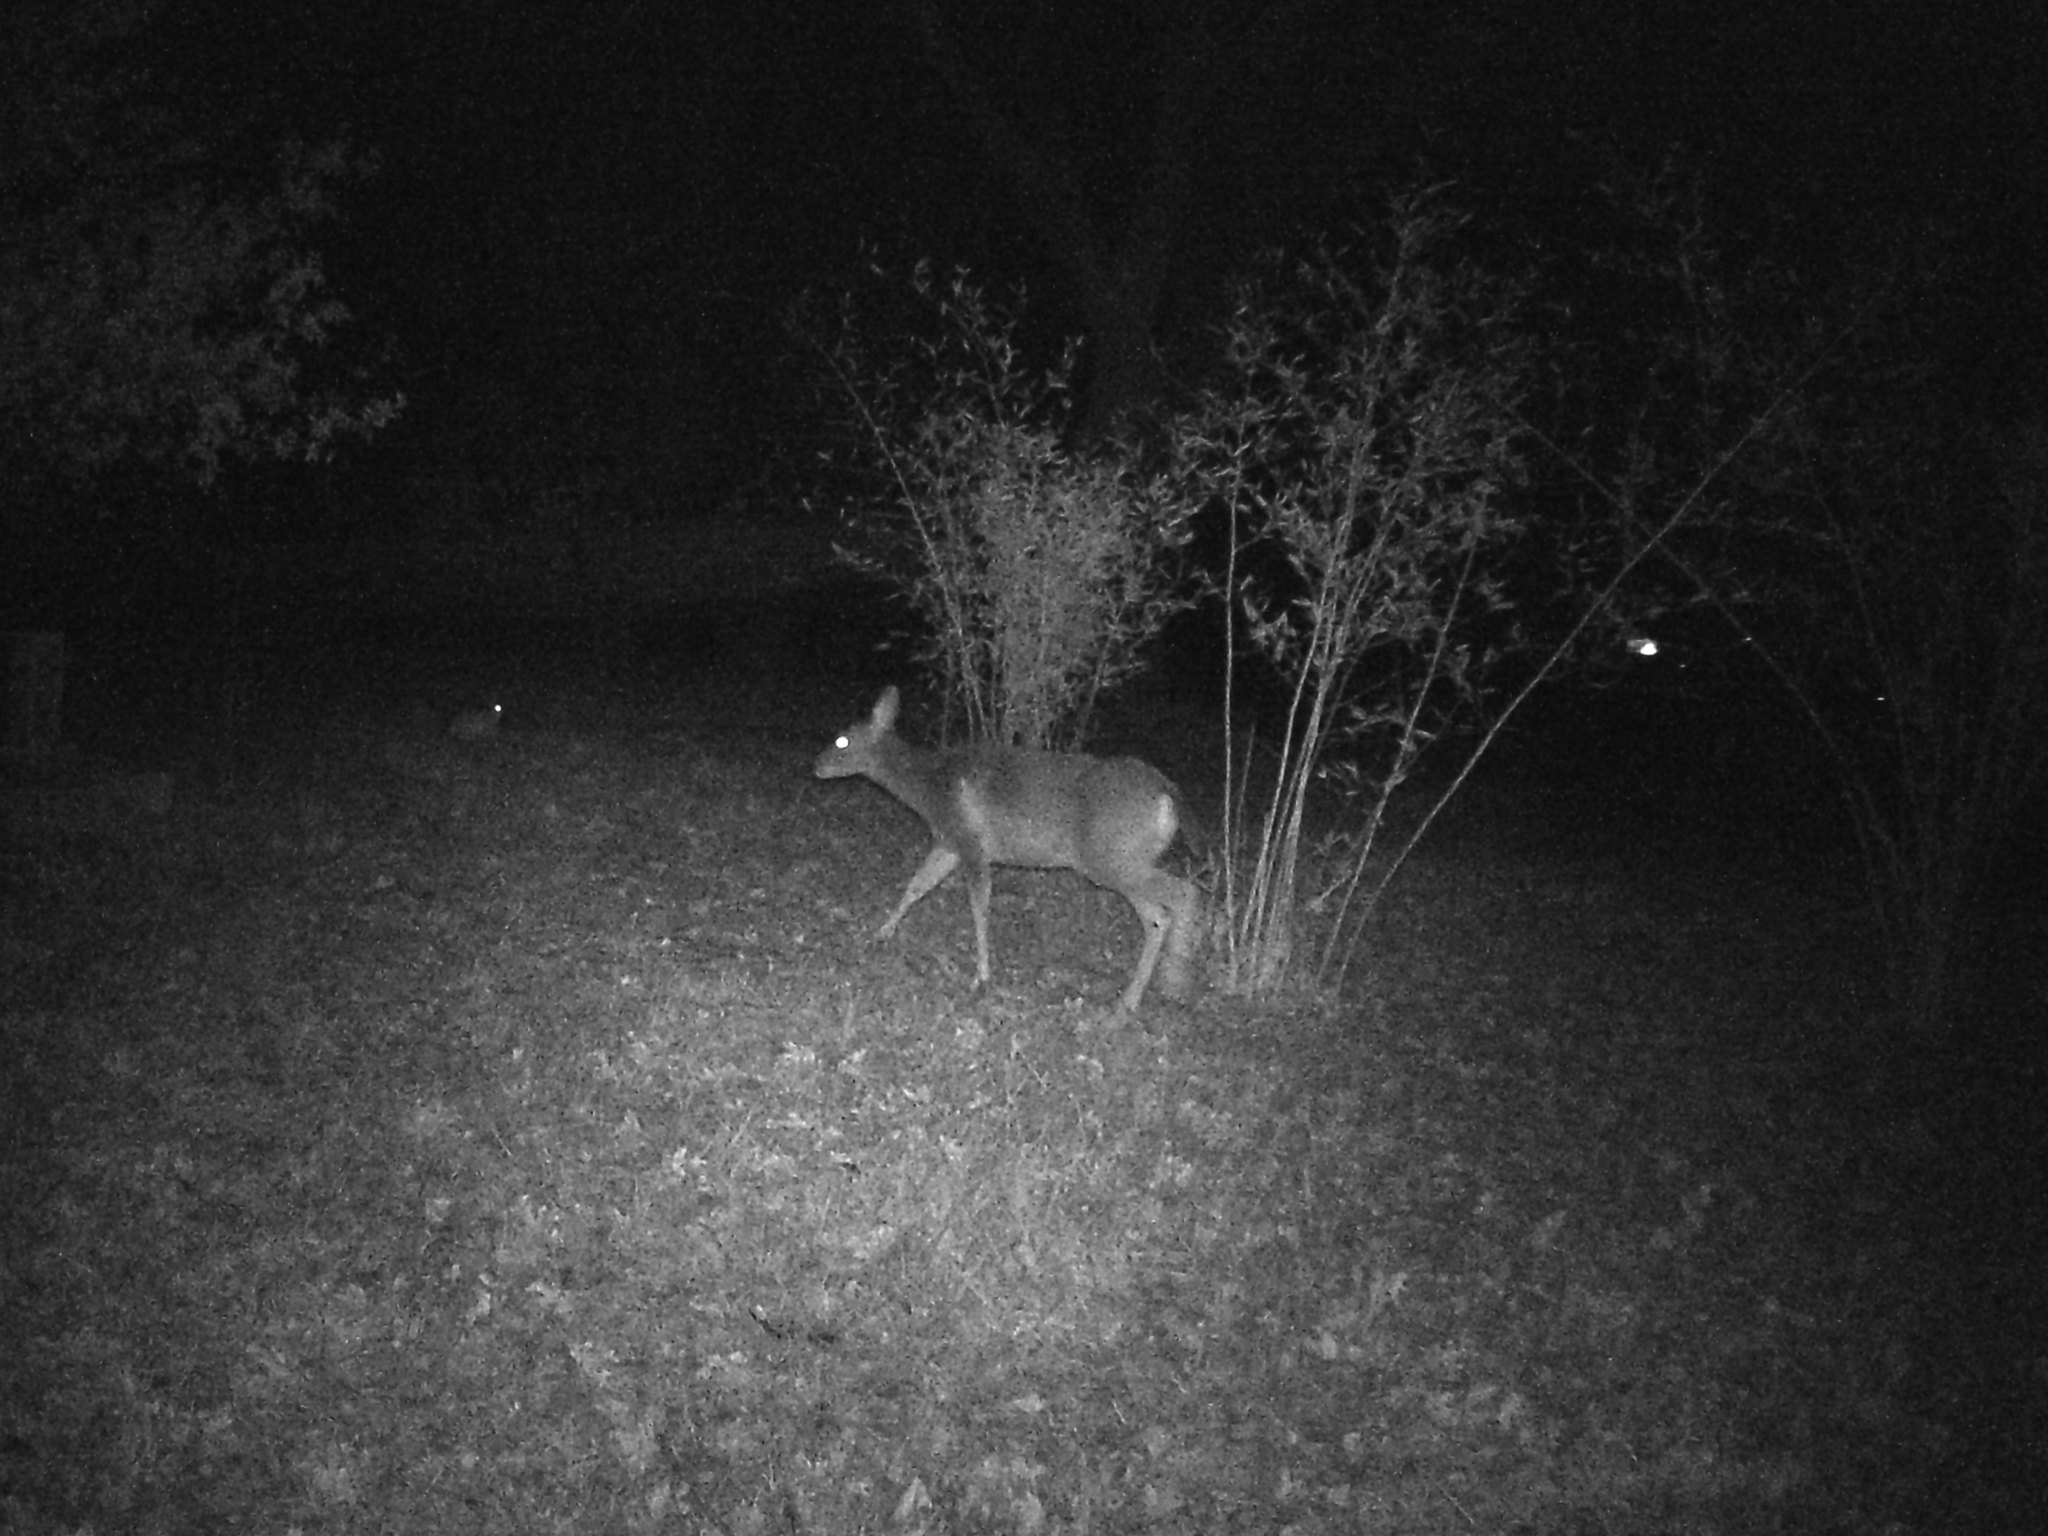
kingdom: Animalia
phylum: Chordata
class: Mammalia
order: Lagomorpha
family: Leporidae
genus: Lepus
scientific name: Lepus californicus
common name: Black-tailed jackrabbit
